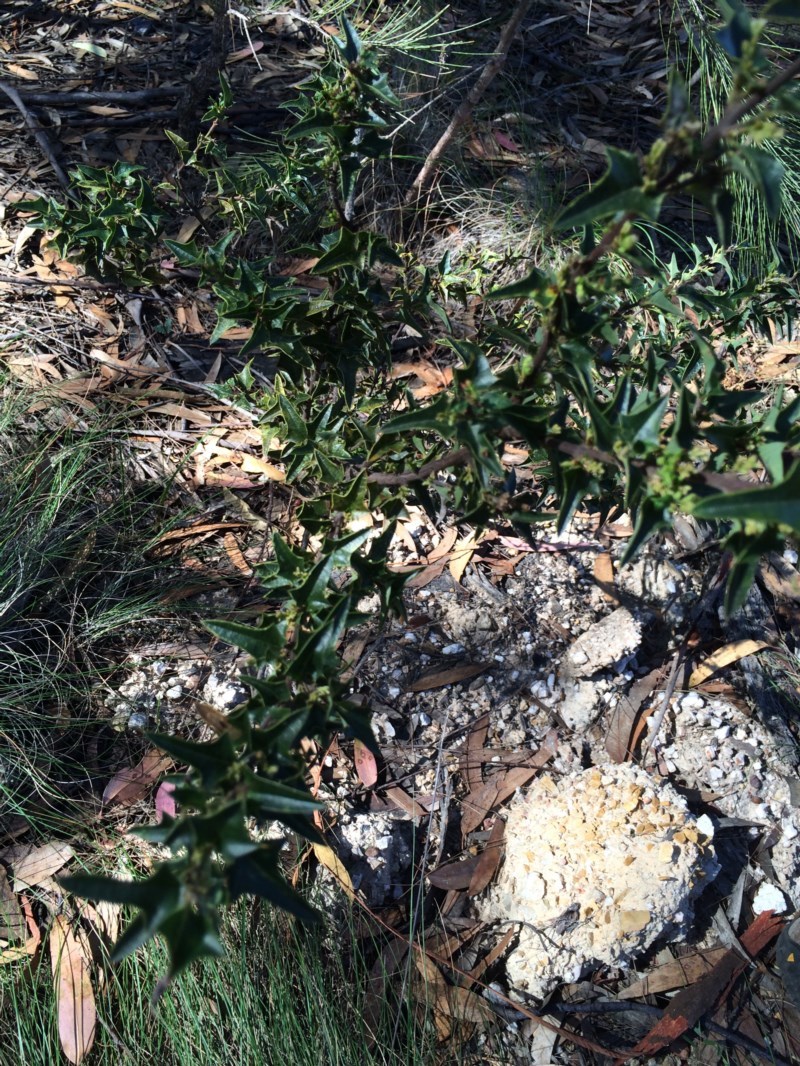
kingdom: Plantae
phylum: Tracheophyta
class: Magnoliopsida
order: Fabales
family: Fabaceae
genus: Podolobium
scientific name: Podolobium ilicifolium
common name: Native holly
